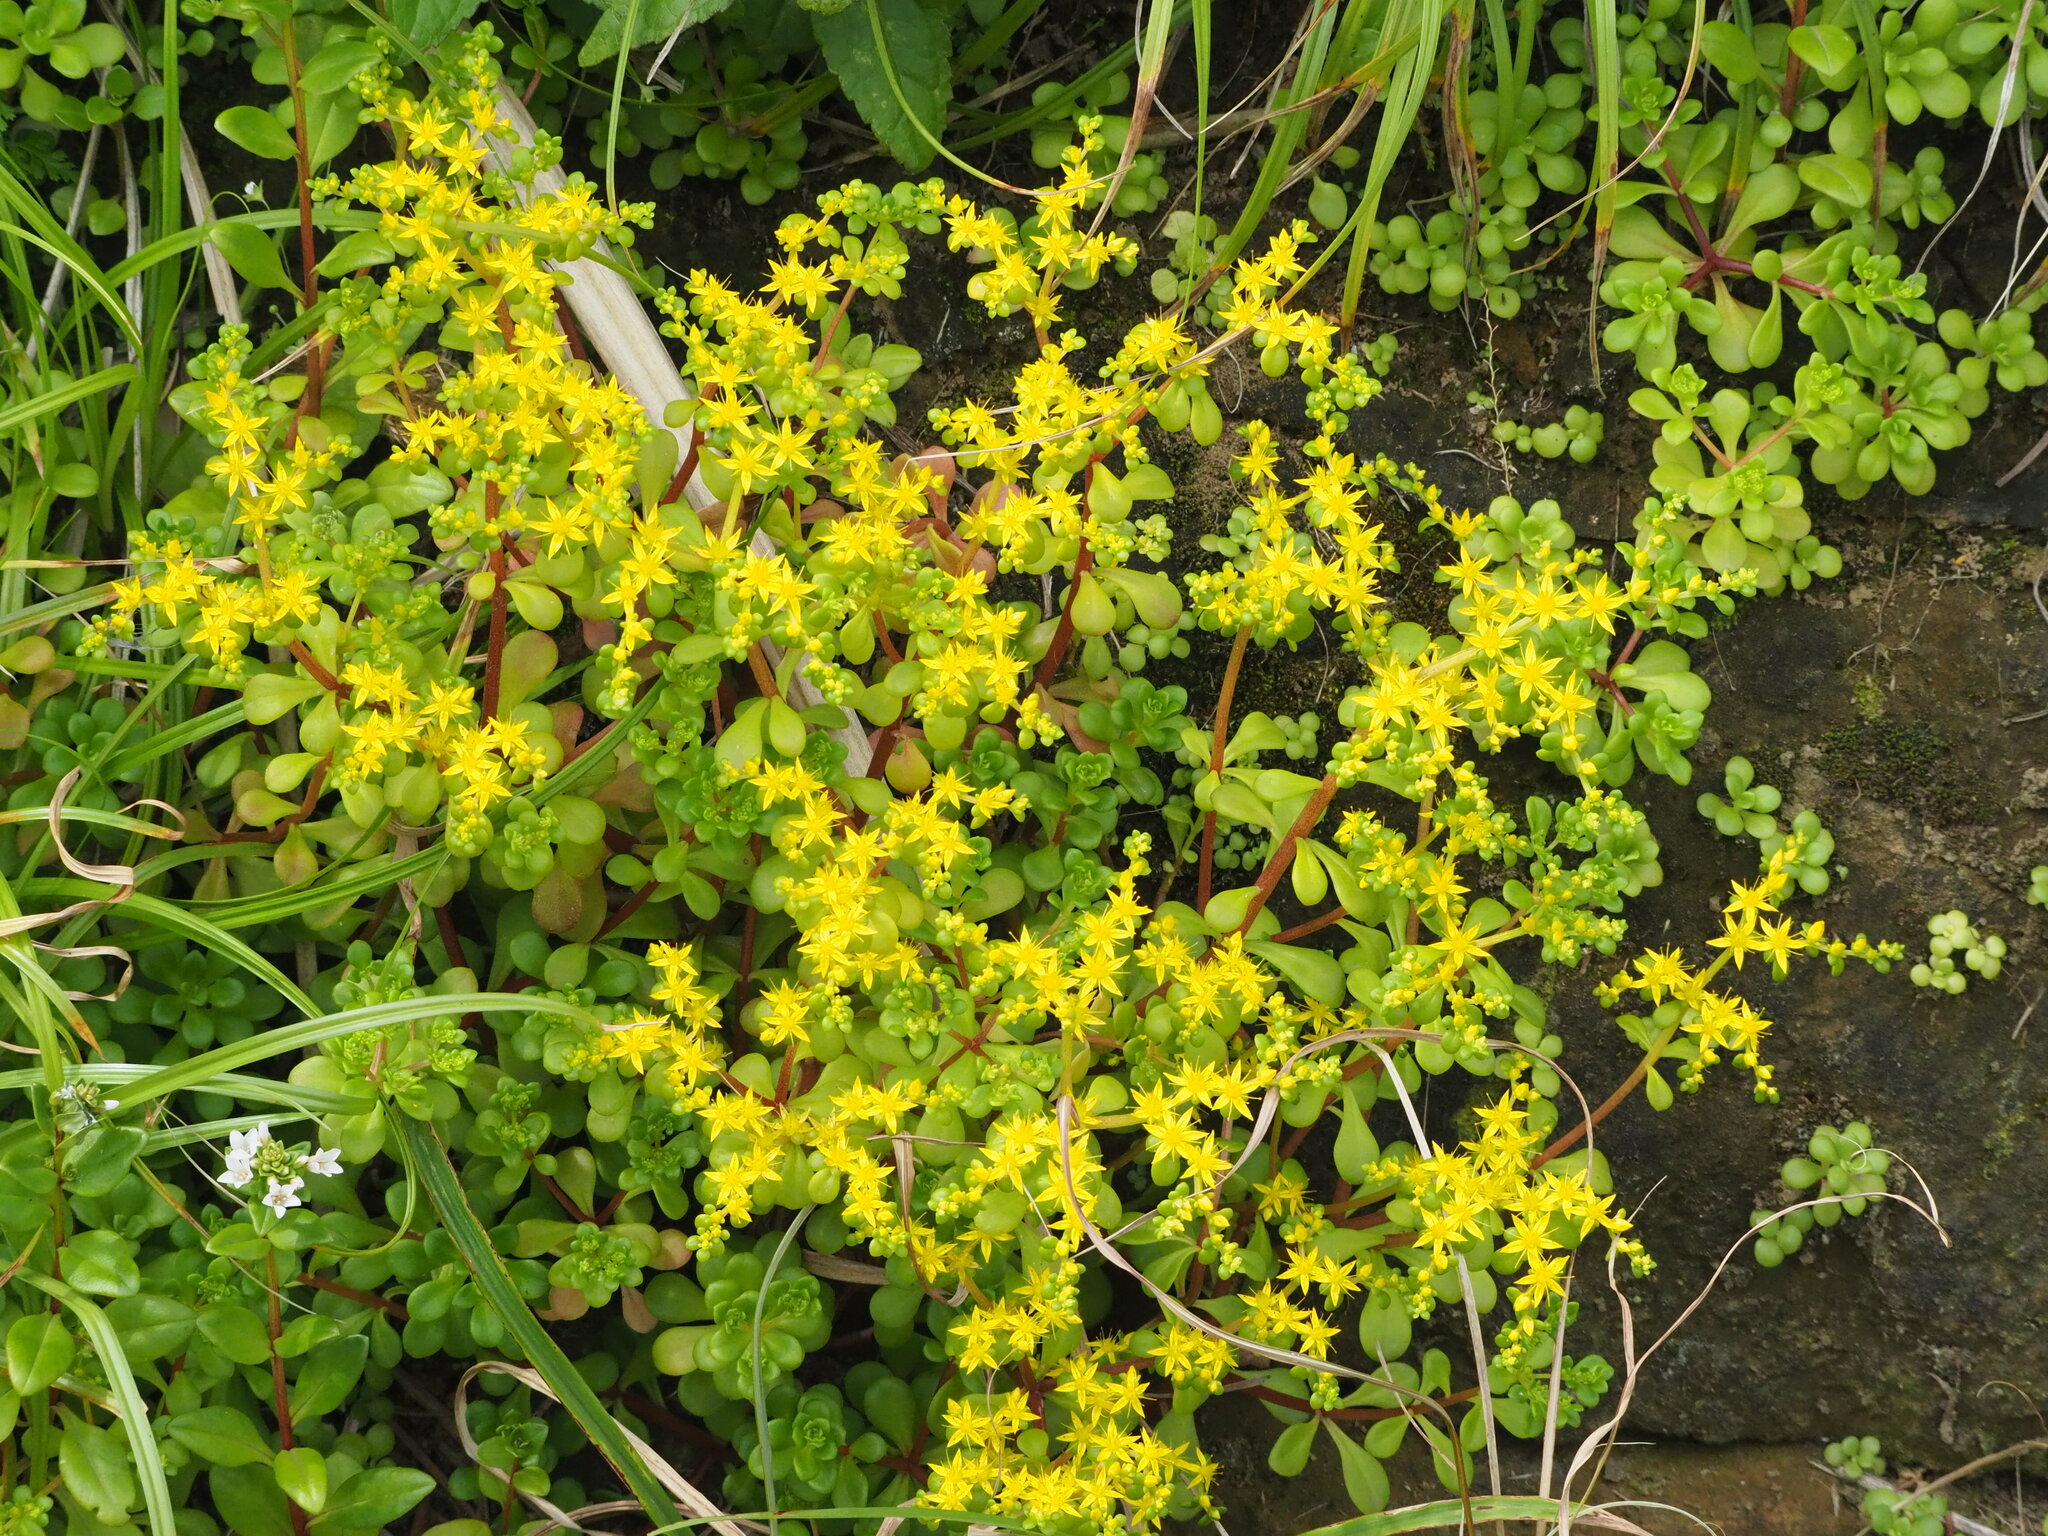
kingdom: Plantae
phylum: Tracheophyta
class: Magnoliopsida
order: Saxifragales
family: Crassulaceae
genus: Sedum
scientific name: Sedum formosanum
